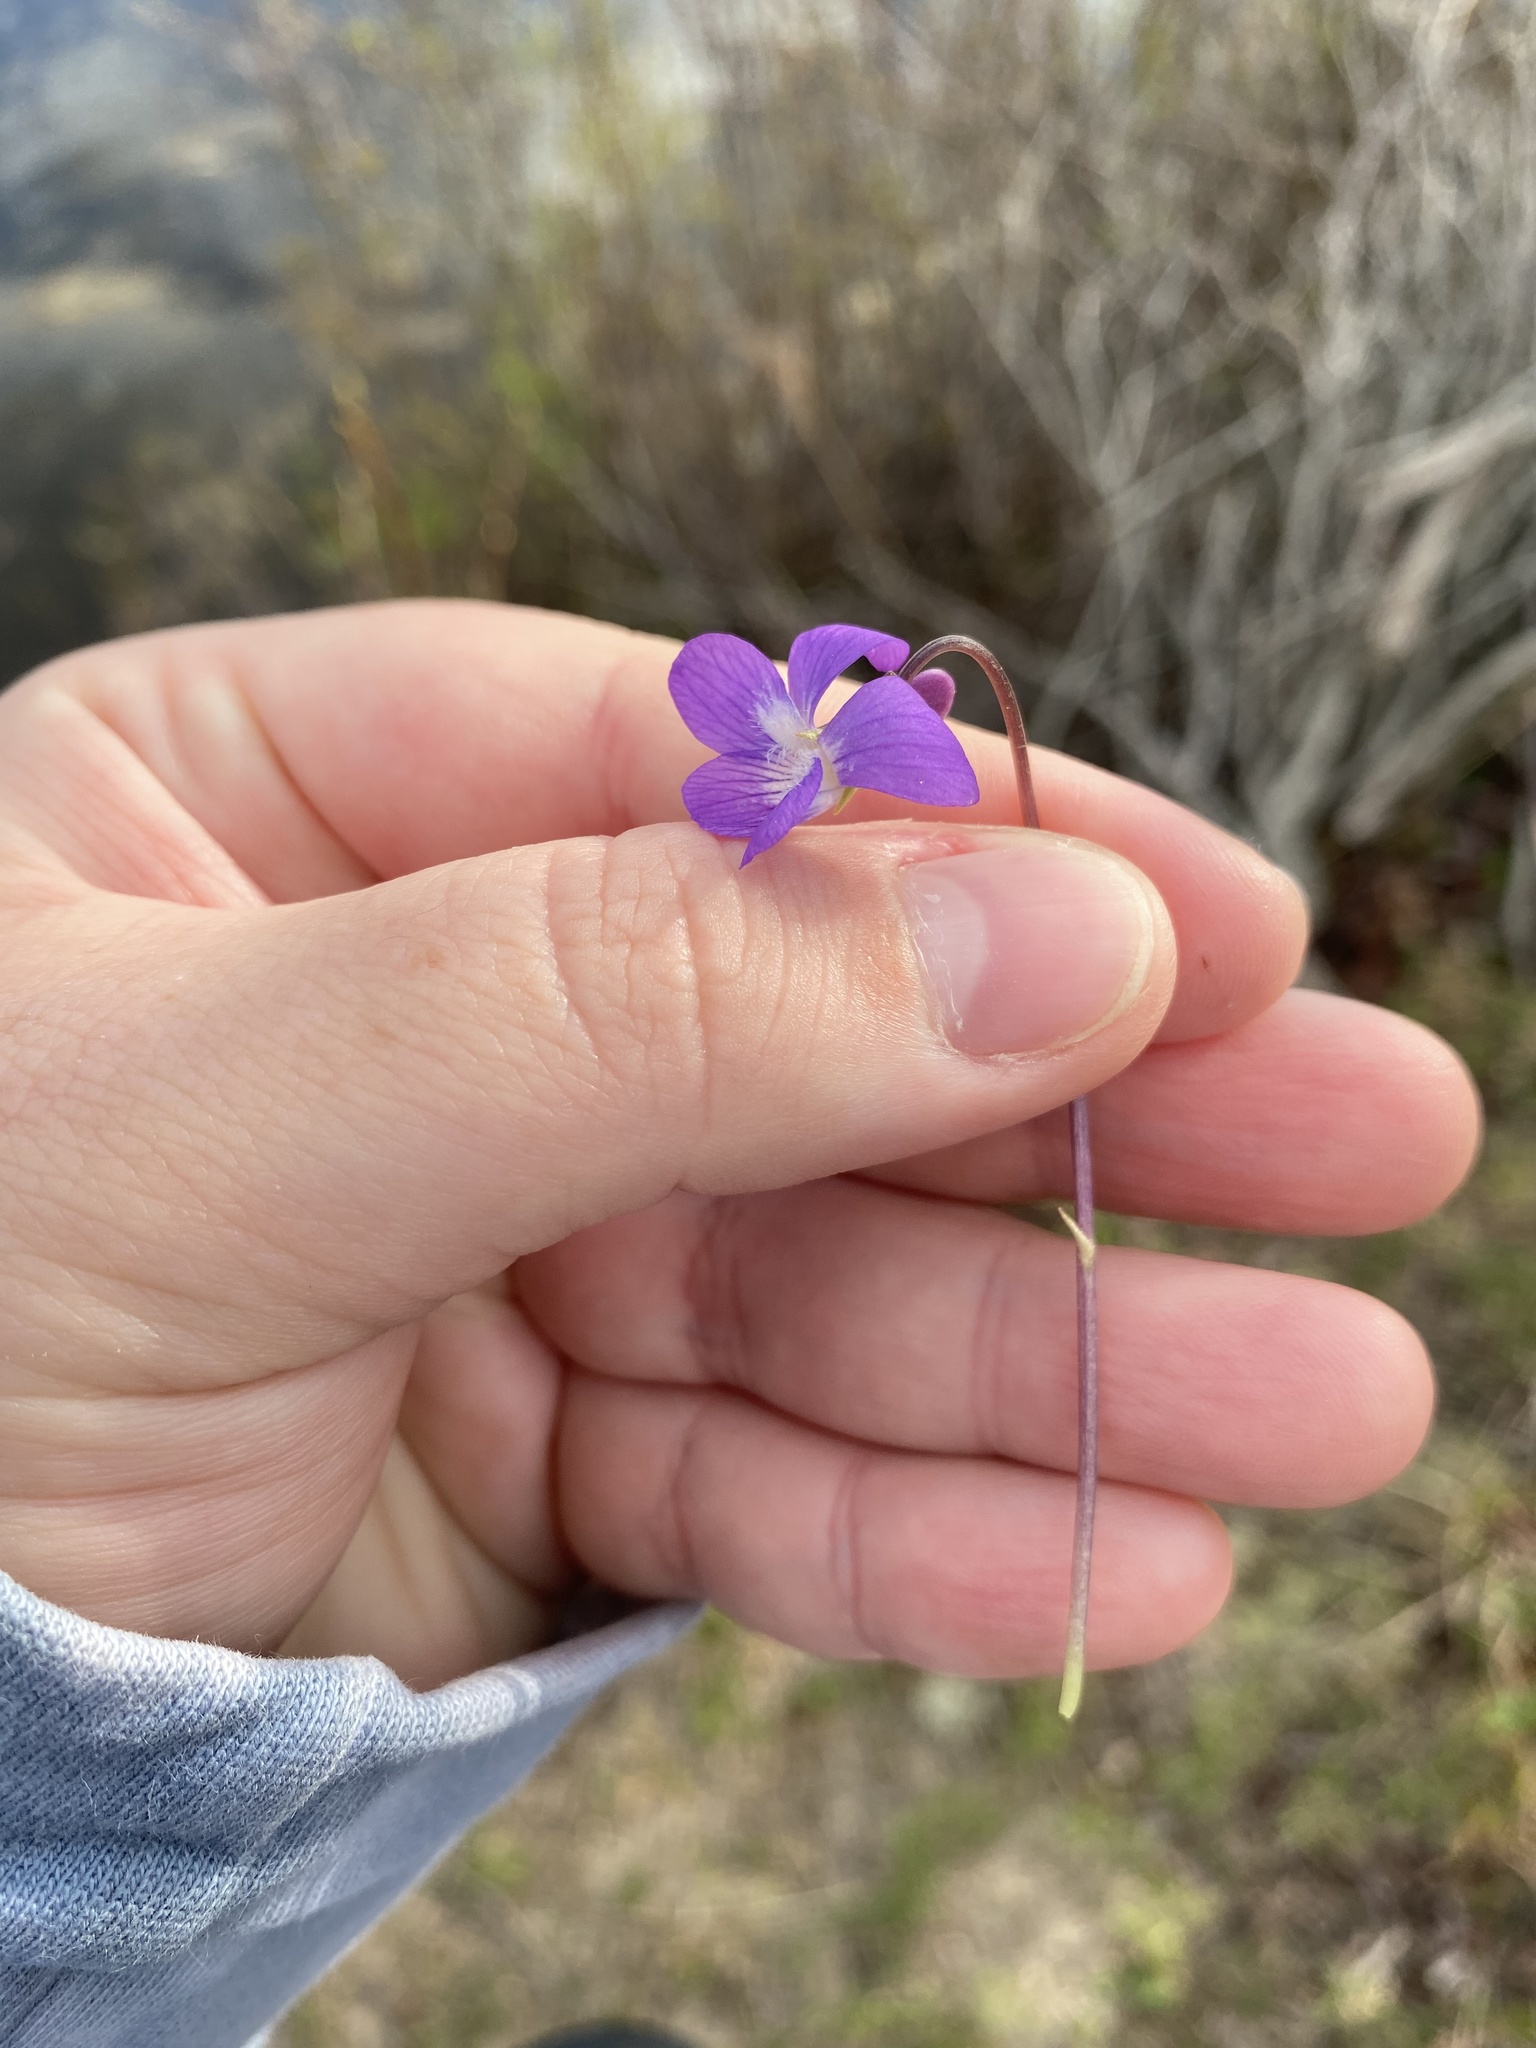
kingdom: Plantae
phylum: Tracheophyta
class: Magnoliopsida
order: Malpighiales
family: Violaceae
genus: Viola
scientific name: Viola sagittata
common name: Arrowhead violet
